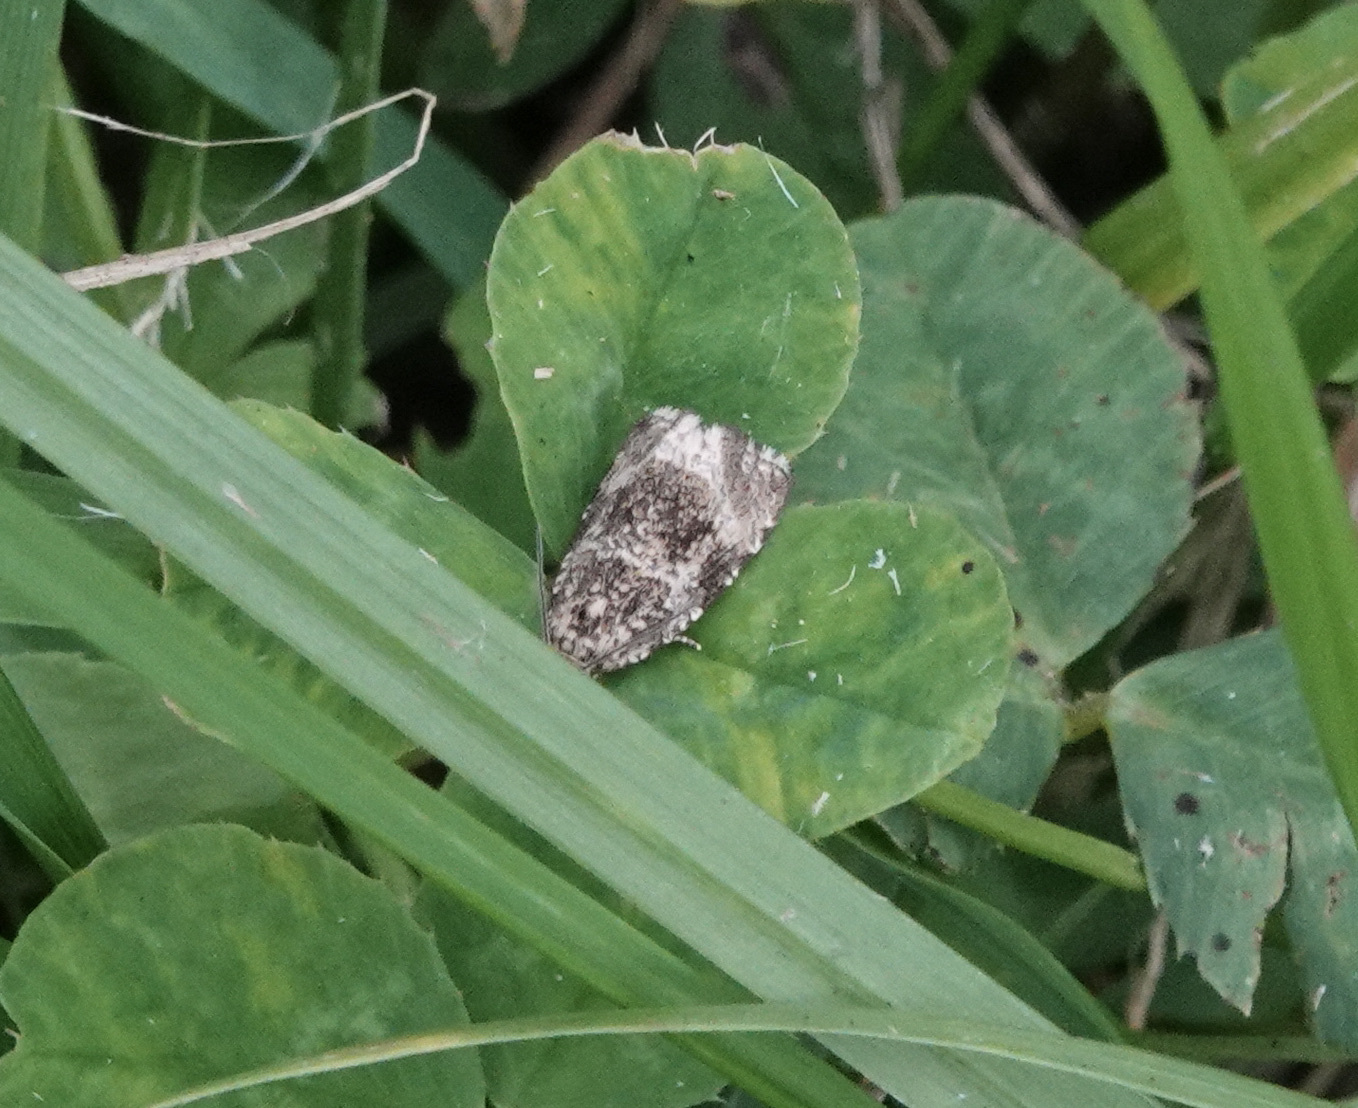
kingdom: Animalia
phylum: Arthropoda
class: Insecta
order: Lepidoptera
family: Tortricidae
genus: Syricoris
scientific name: Syricoris lacunana
